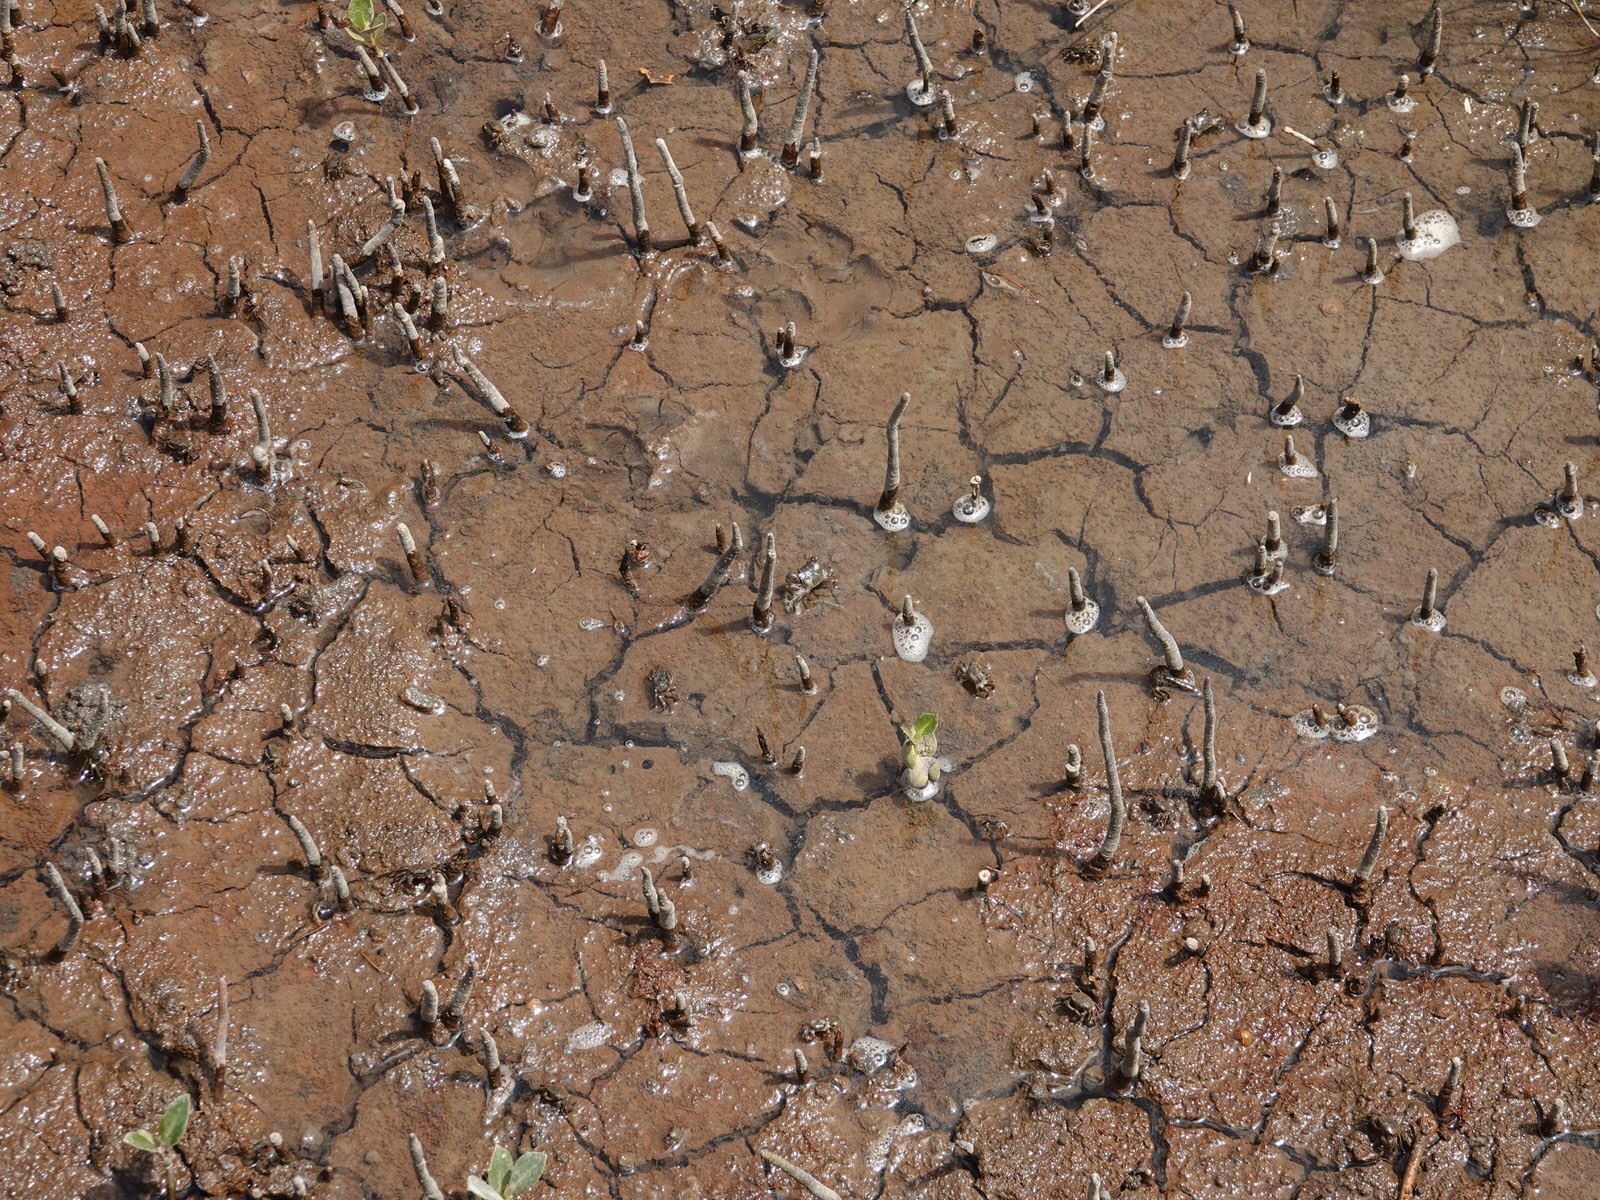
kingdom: Animalia
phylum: Arthropoda
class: Malacostraca
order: Decapoda
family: Varunidae
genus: Austrohelice
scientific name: Austrohelice crassa
